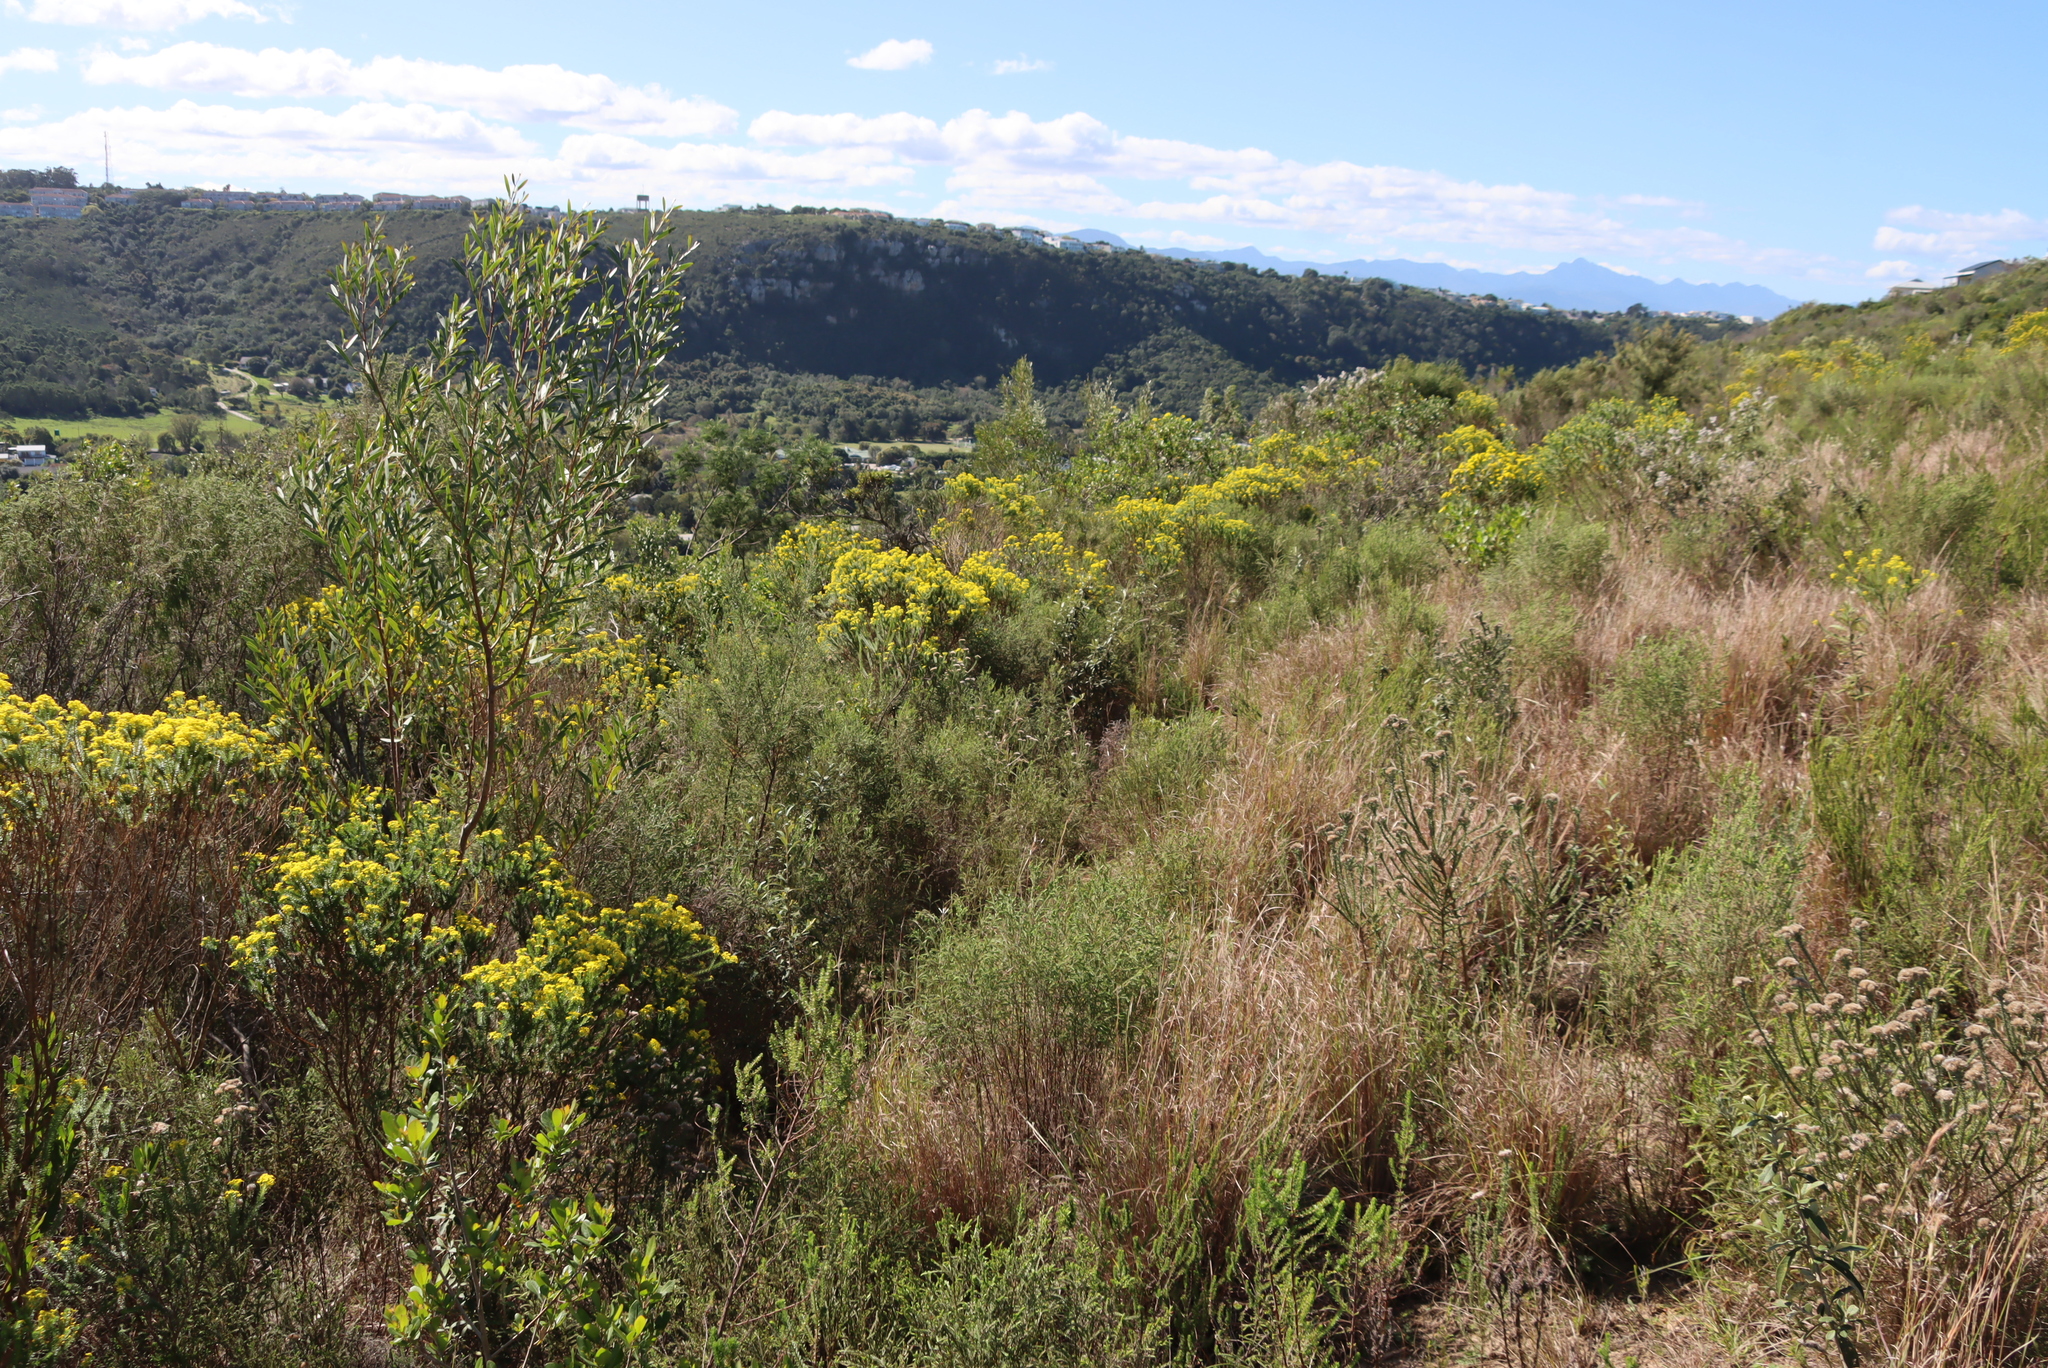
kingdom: Plantae
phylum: Tracheophyta
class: Liliopsida
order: Poales
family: Poaceae
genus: Themeda
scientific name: Themeda triandra
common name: Kangaroo grass
